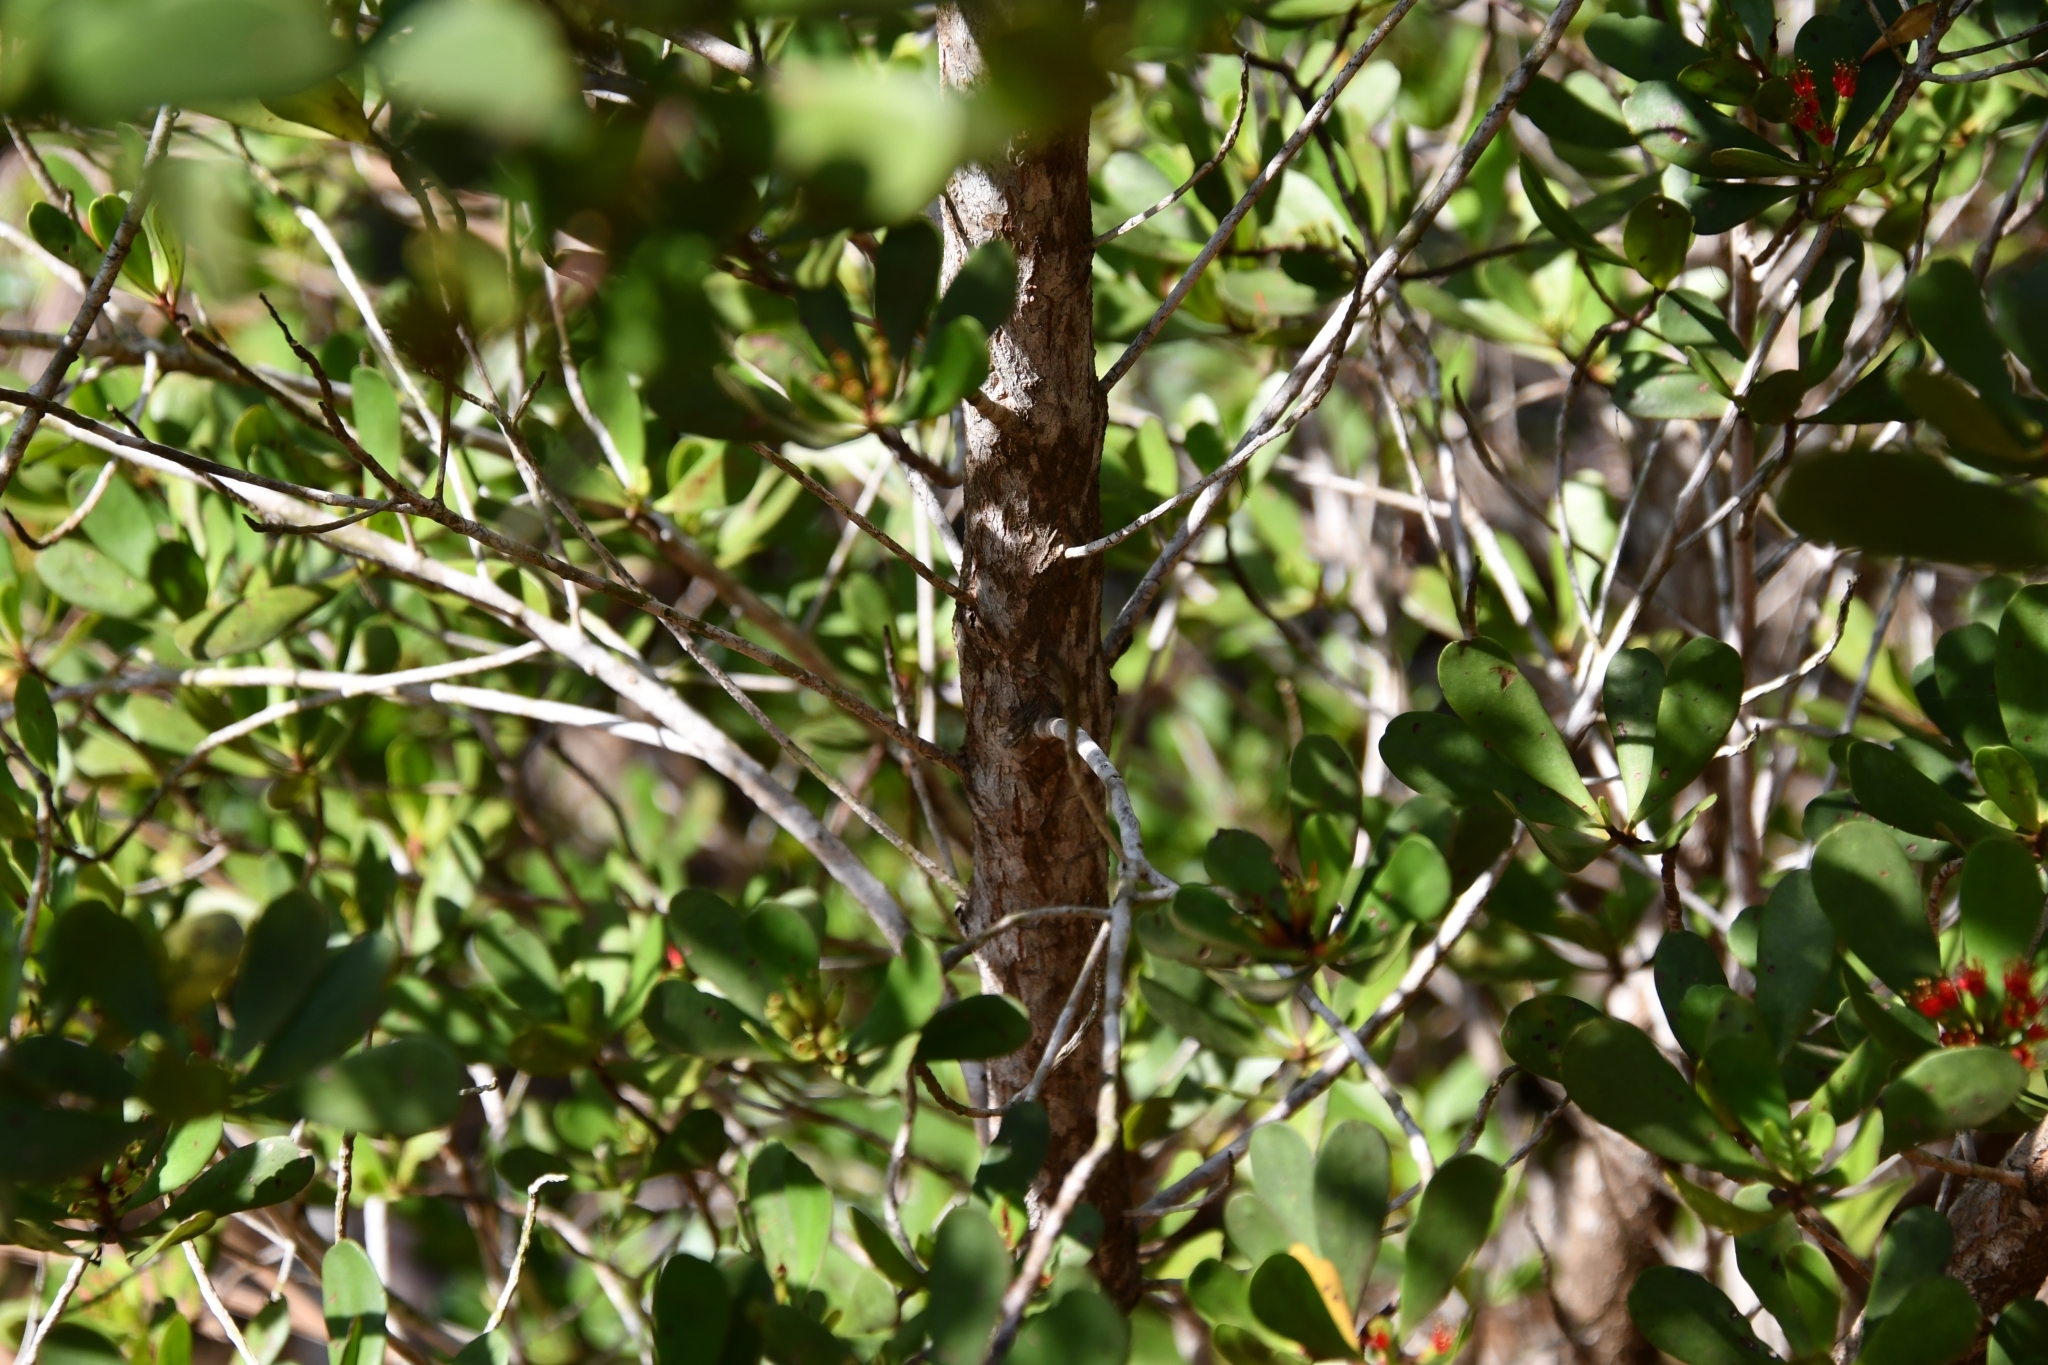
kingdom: Plantae
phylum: Tracheophyta
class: Magnoliopsida
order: Myrtales
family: Combretaceae
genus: Lumnitzera
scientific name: Lumnitzera littorea
